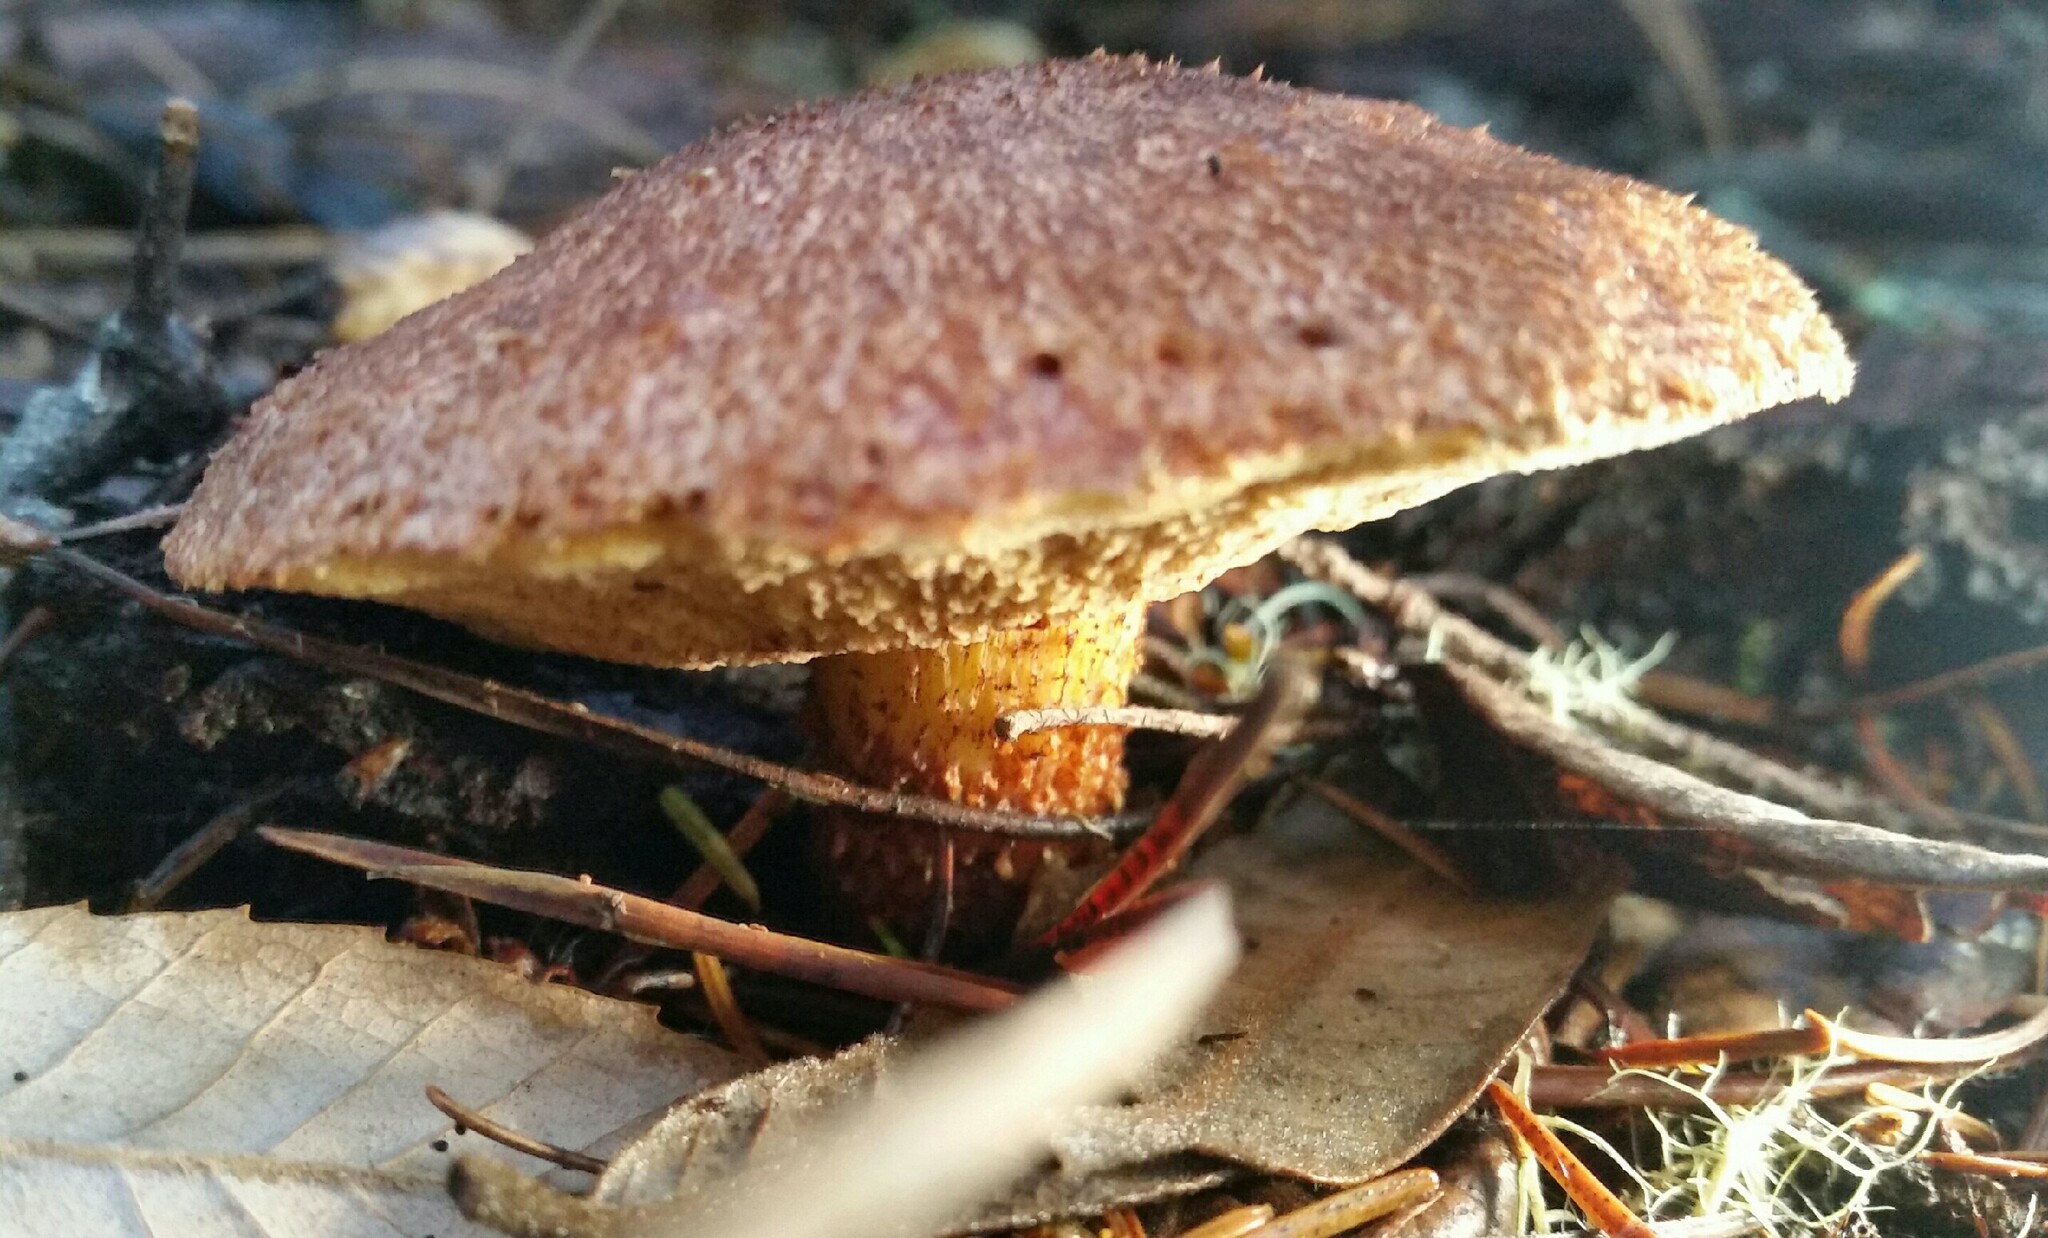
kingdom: Fungi
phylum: Basidiomycota
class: Agaricomycetes
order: Boletales
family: Suillaceae
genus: Suillus
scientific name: Suillus lakei
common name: Western painted suillus
